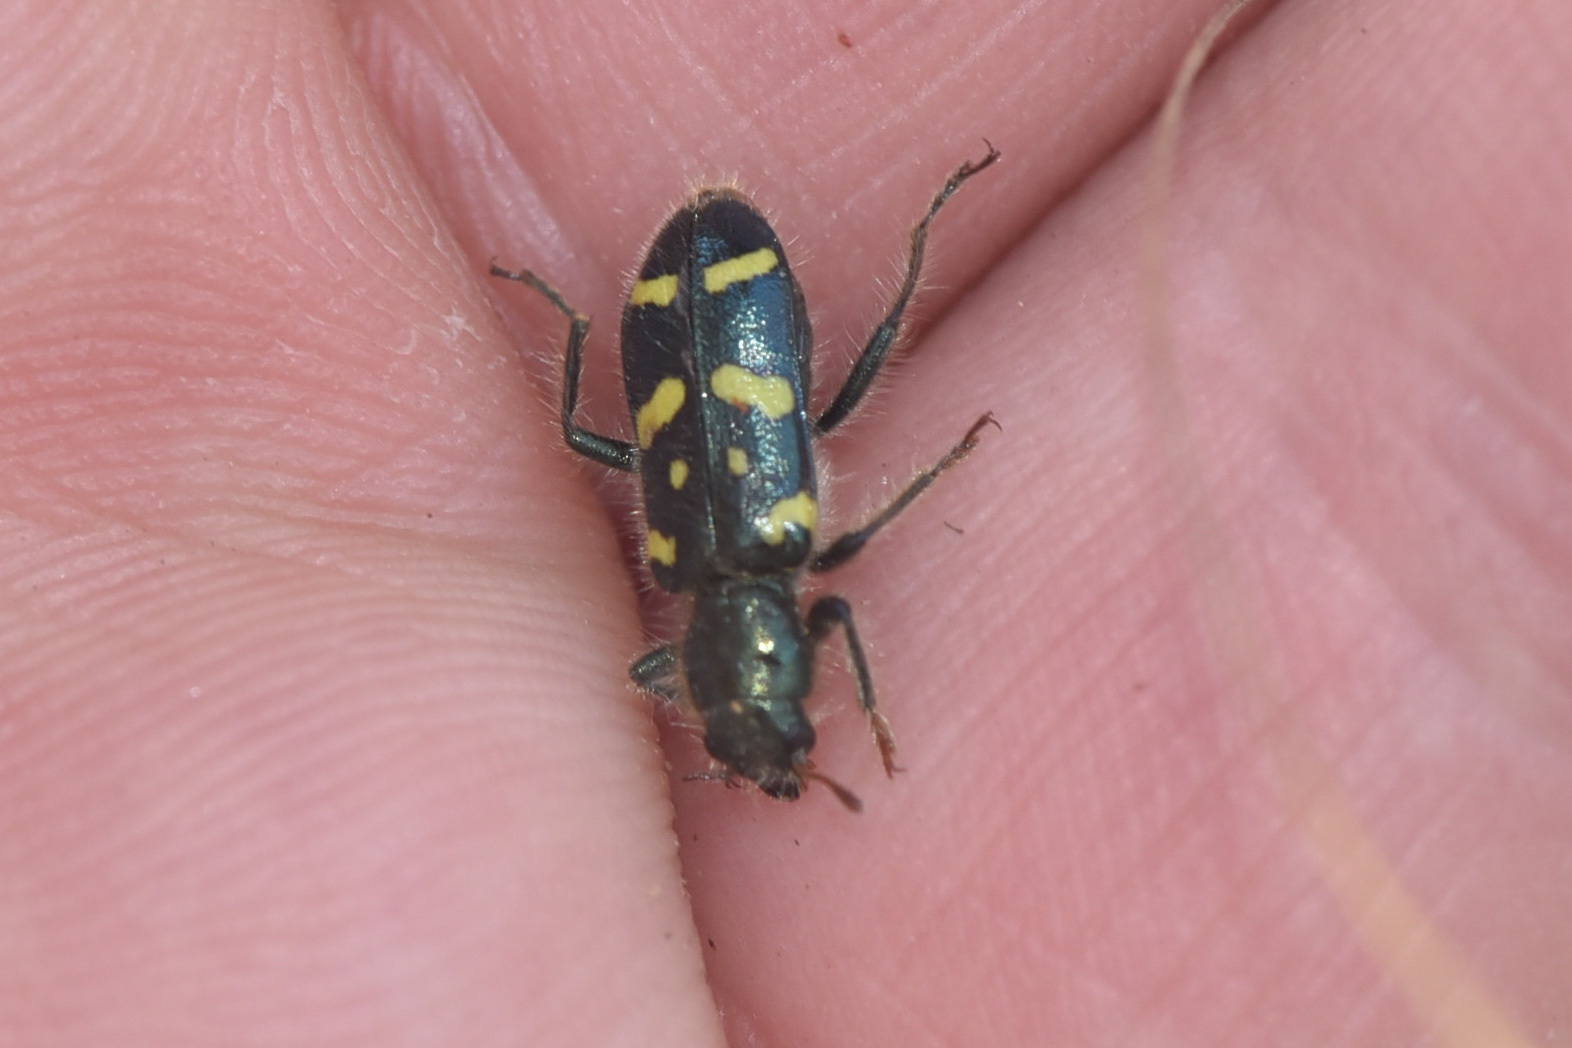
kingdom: Animalia
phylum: Arthropoda
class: Insecta
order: Coleoptera
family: Cleridae
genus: Trichodes
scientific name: Trichodes ornatus
